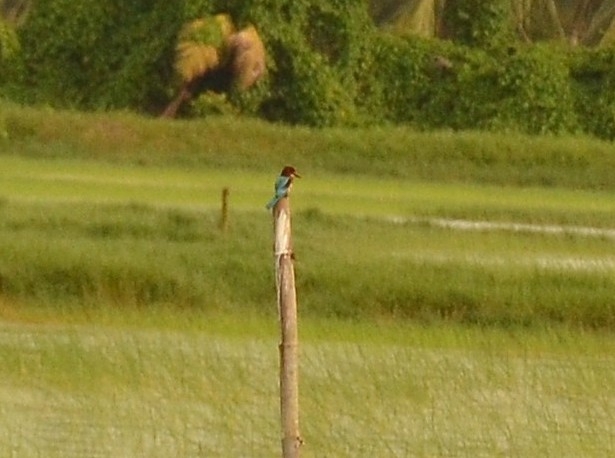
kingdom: Animalia
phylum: Chordata
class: Aves
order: Coraciiformes
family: Alcedinidae
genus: Halcyon
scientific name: Halcyon smyrnensis
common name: White-throated kingfisher
